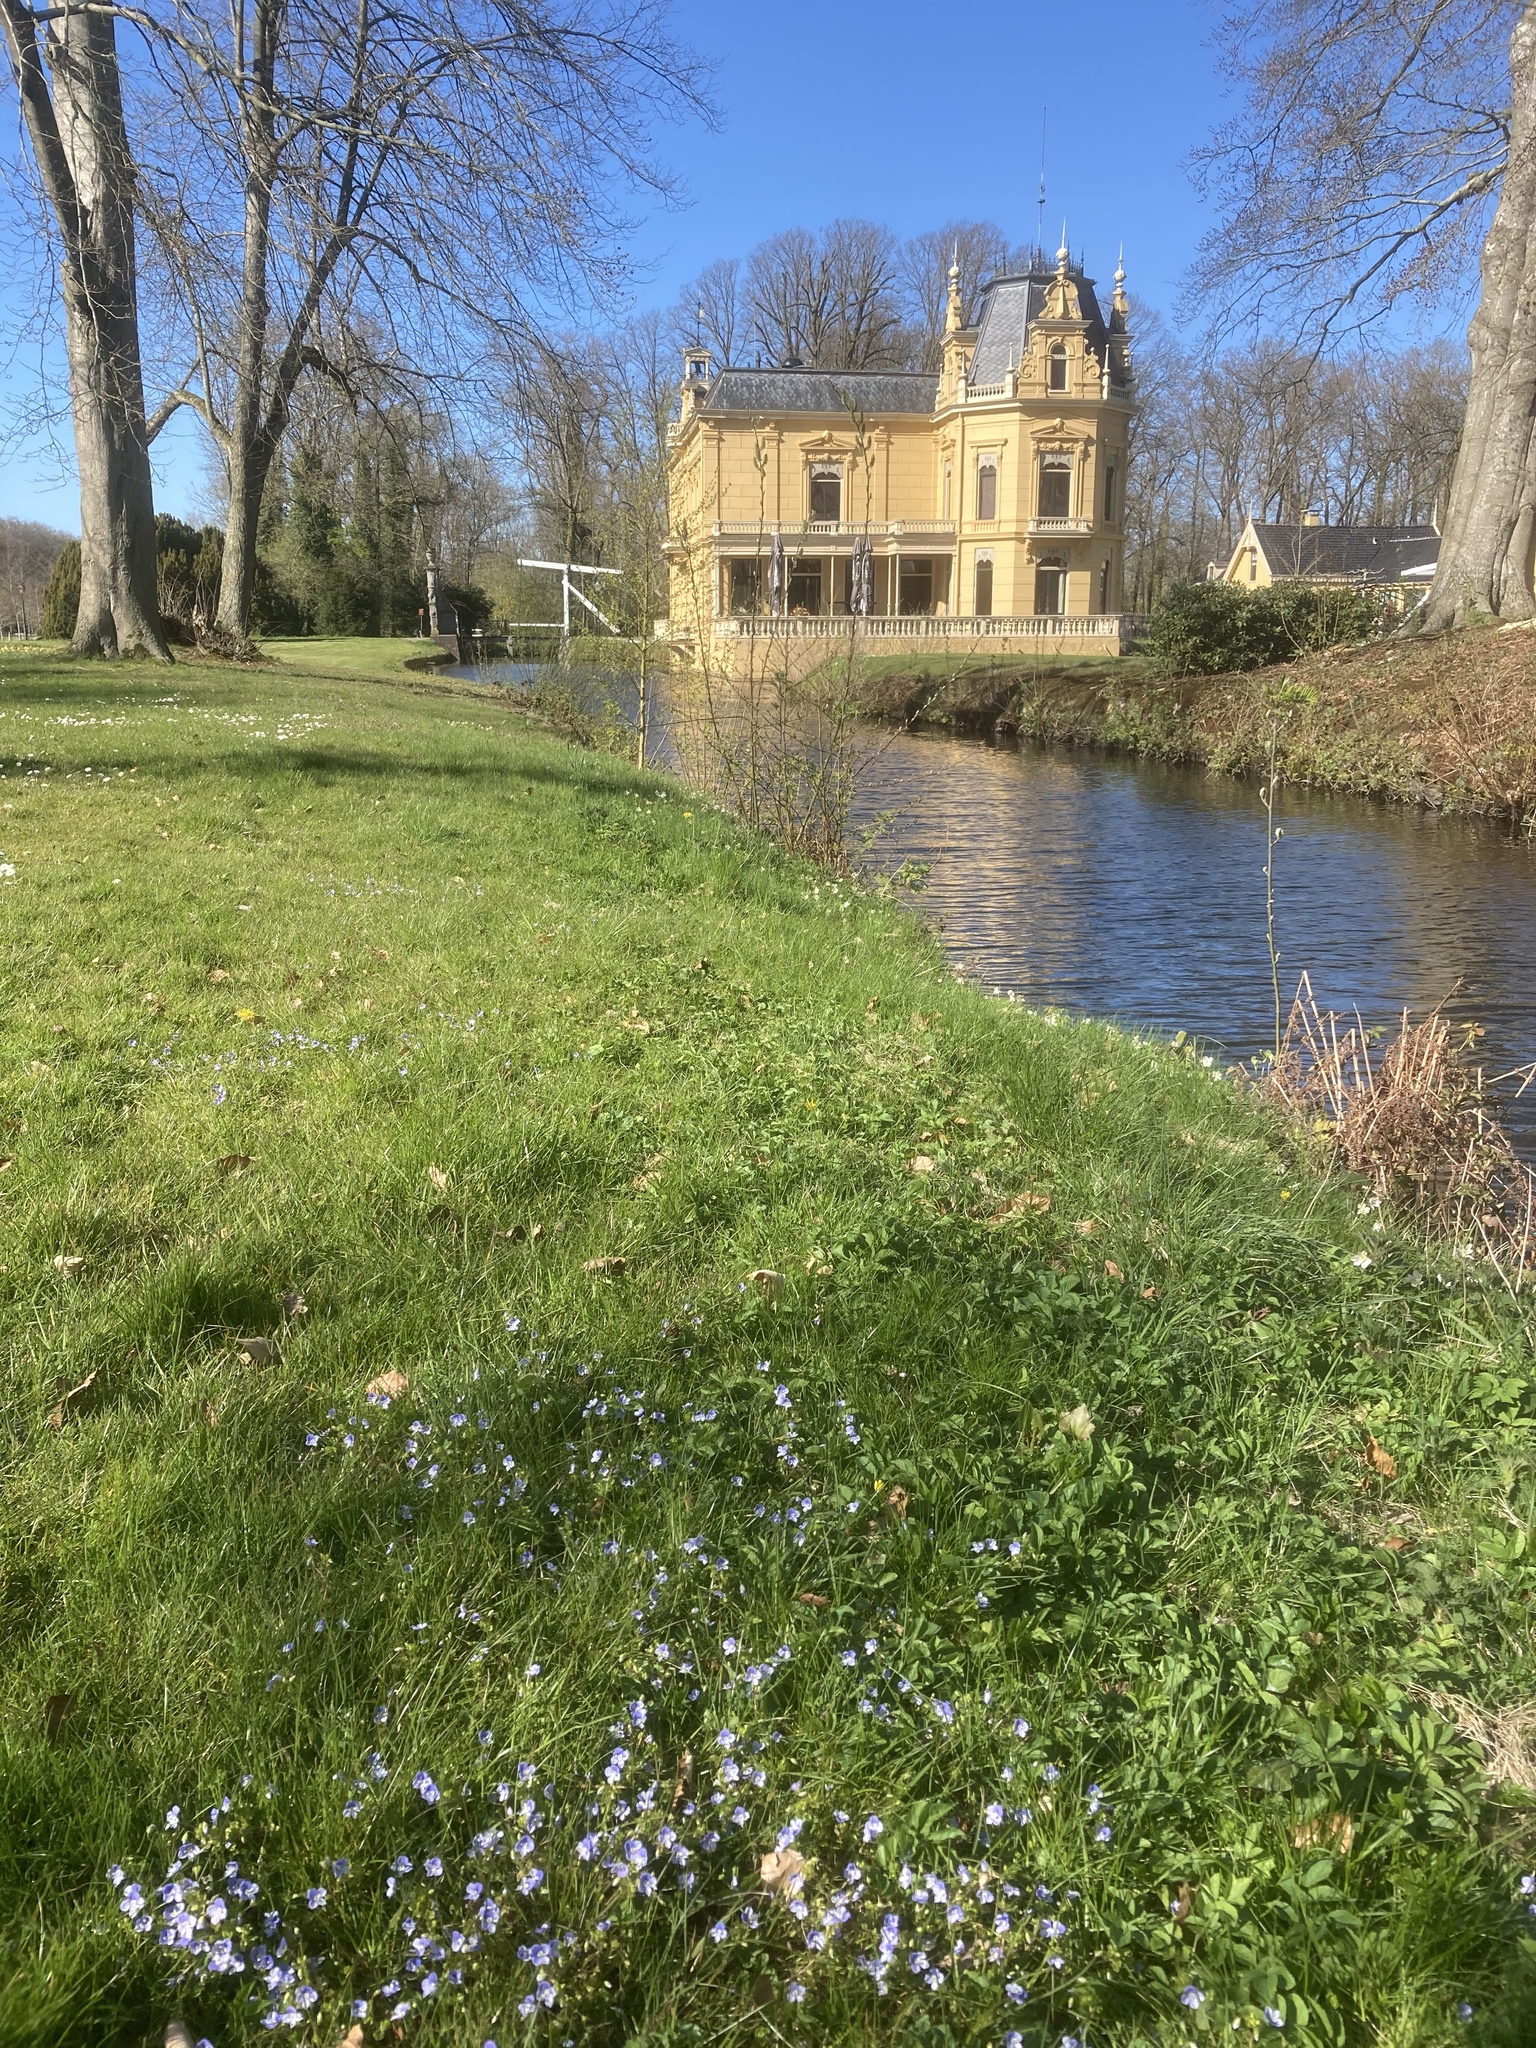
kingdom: Plantae
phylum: Tracheophyta
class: Magnoliopsida
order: Lamiales
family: Plantaginaceae
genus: Veronica
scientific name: Veronica filiformis
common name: Slender speedwell
